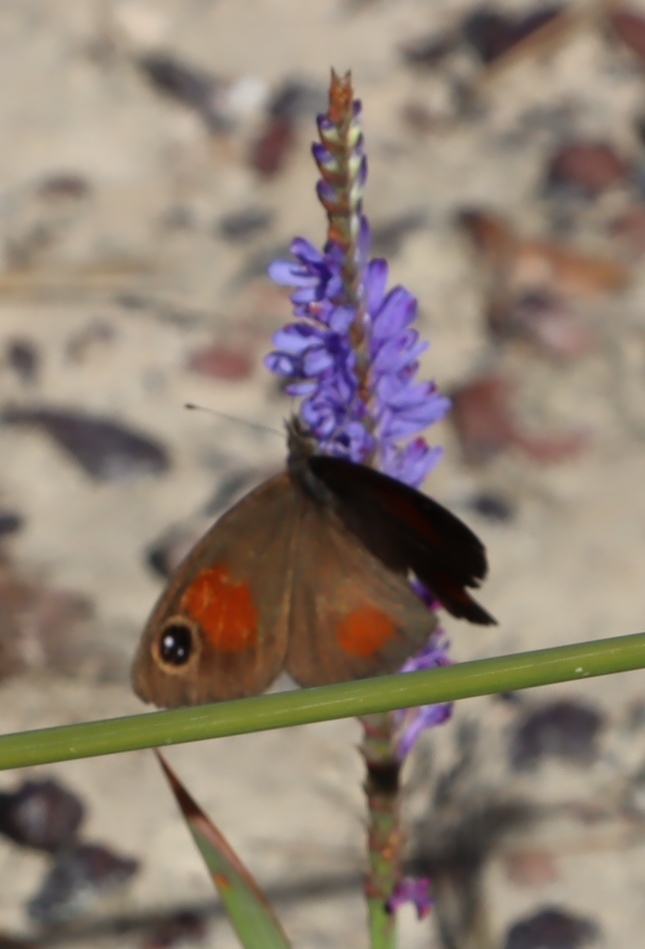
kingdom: Animalia
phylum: Arthropoda
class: Insecta
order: Lepidoptera
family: Nymphalidae
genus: Pseudonympha
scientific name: Pseudonympha detecta
